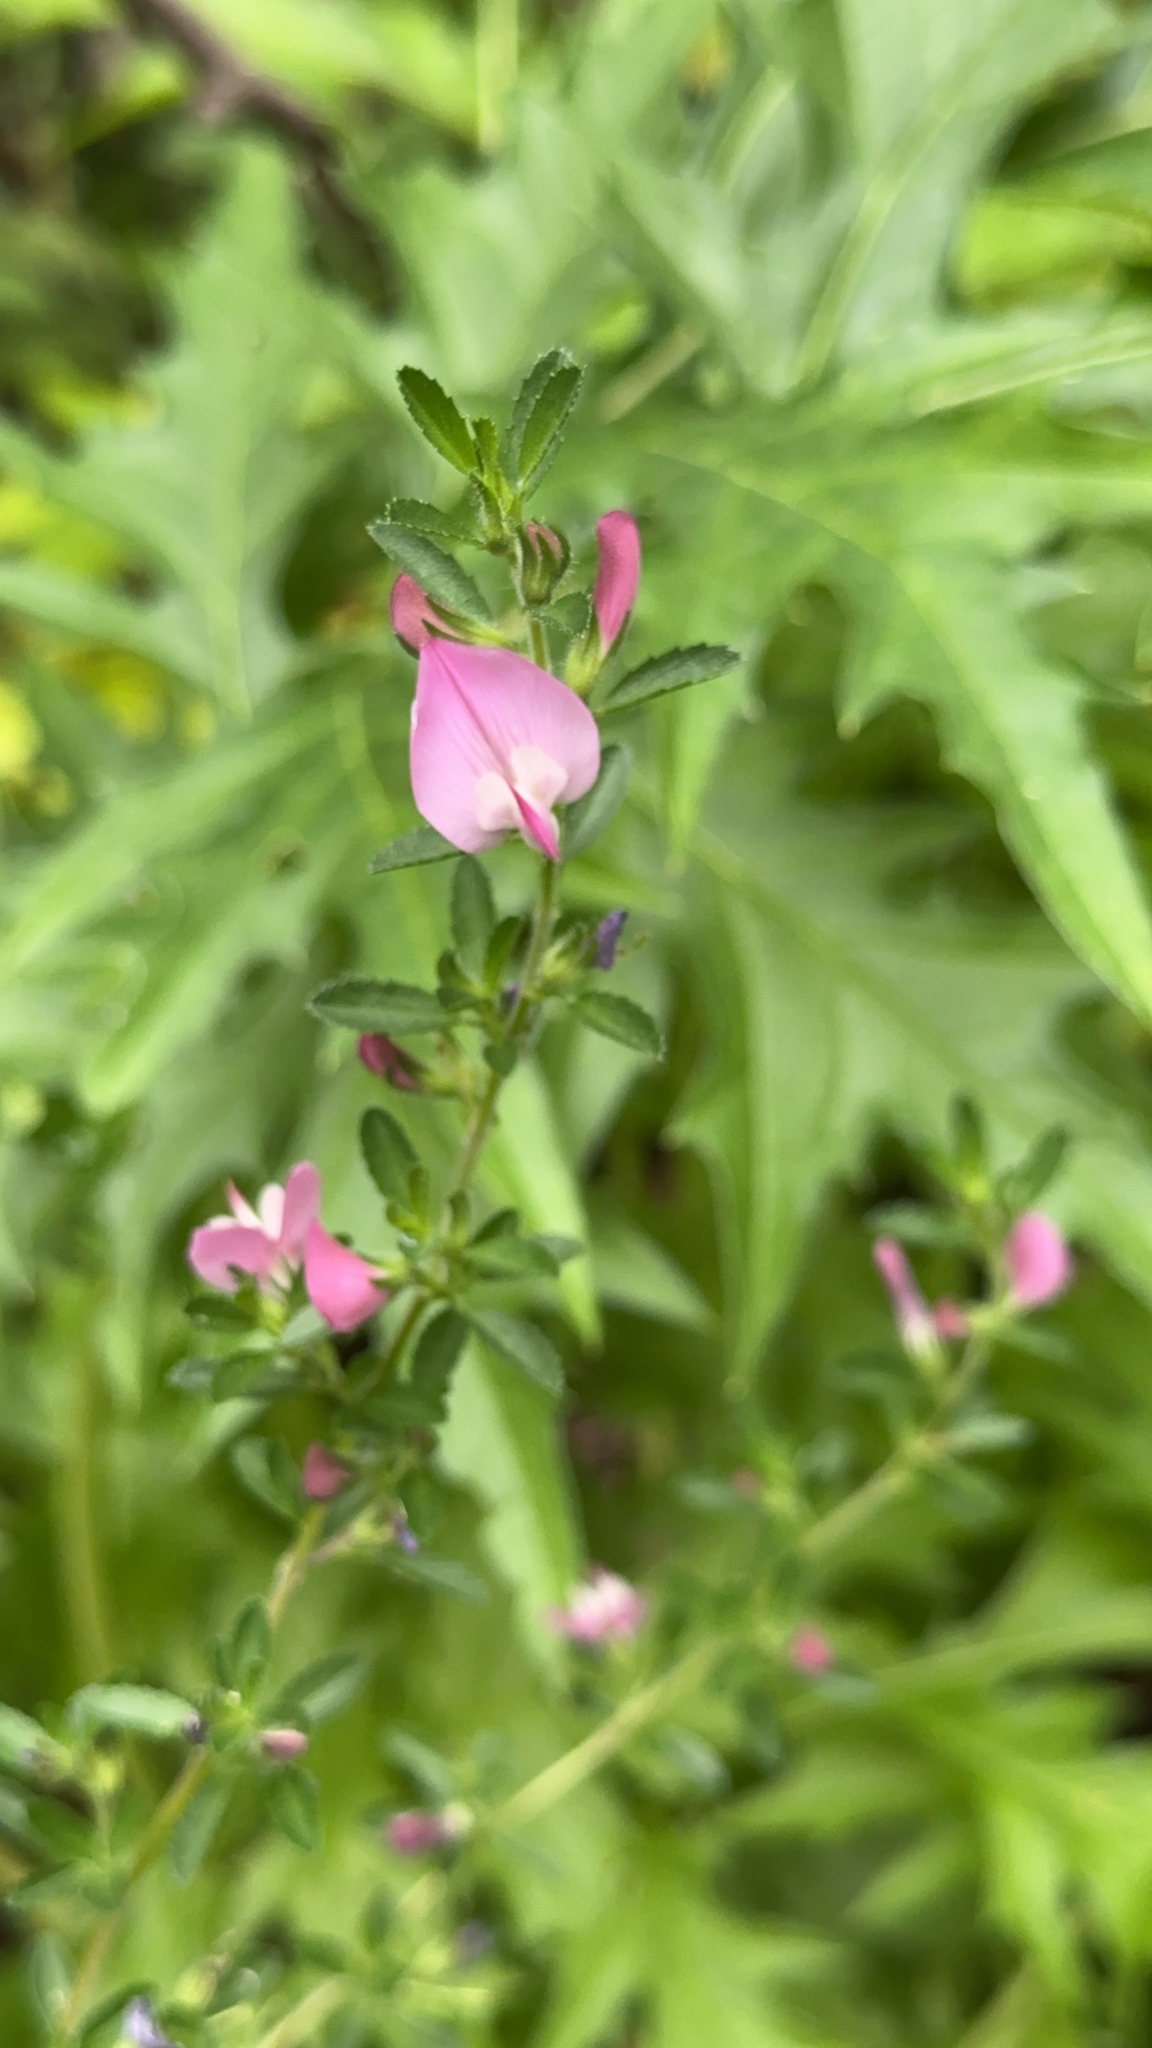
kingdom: Plantae
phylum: Tracheophyta
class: Magnoliopsida
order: Fabales
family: Fabaceae
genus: Ononis
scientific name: Ononis spinosa
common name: Spiny restharrow
